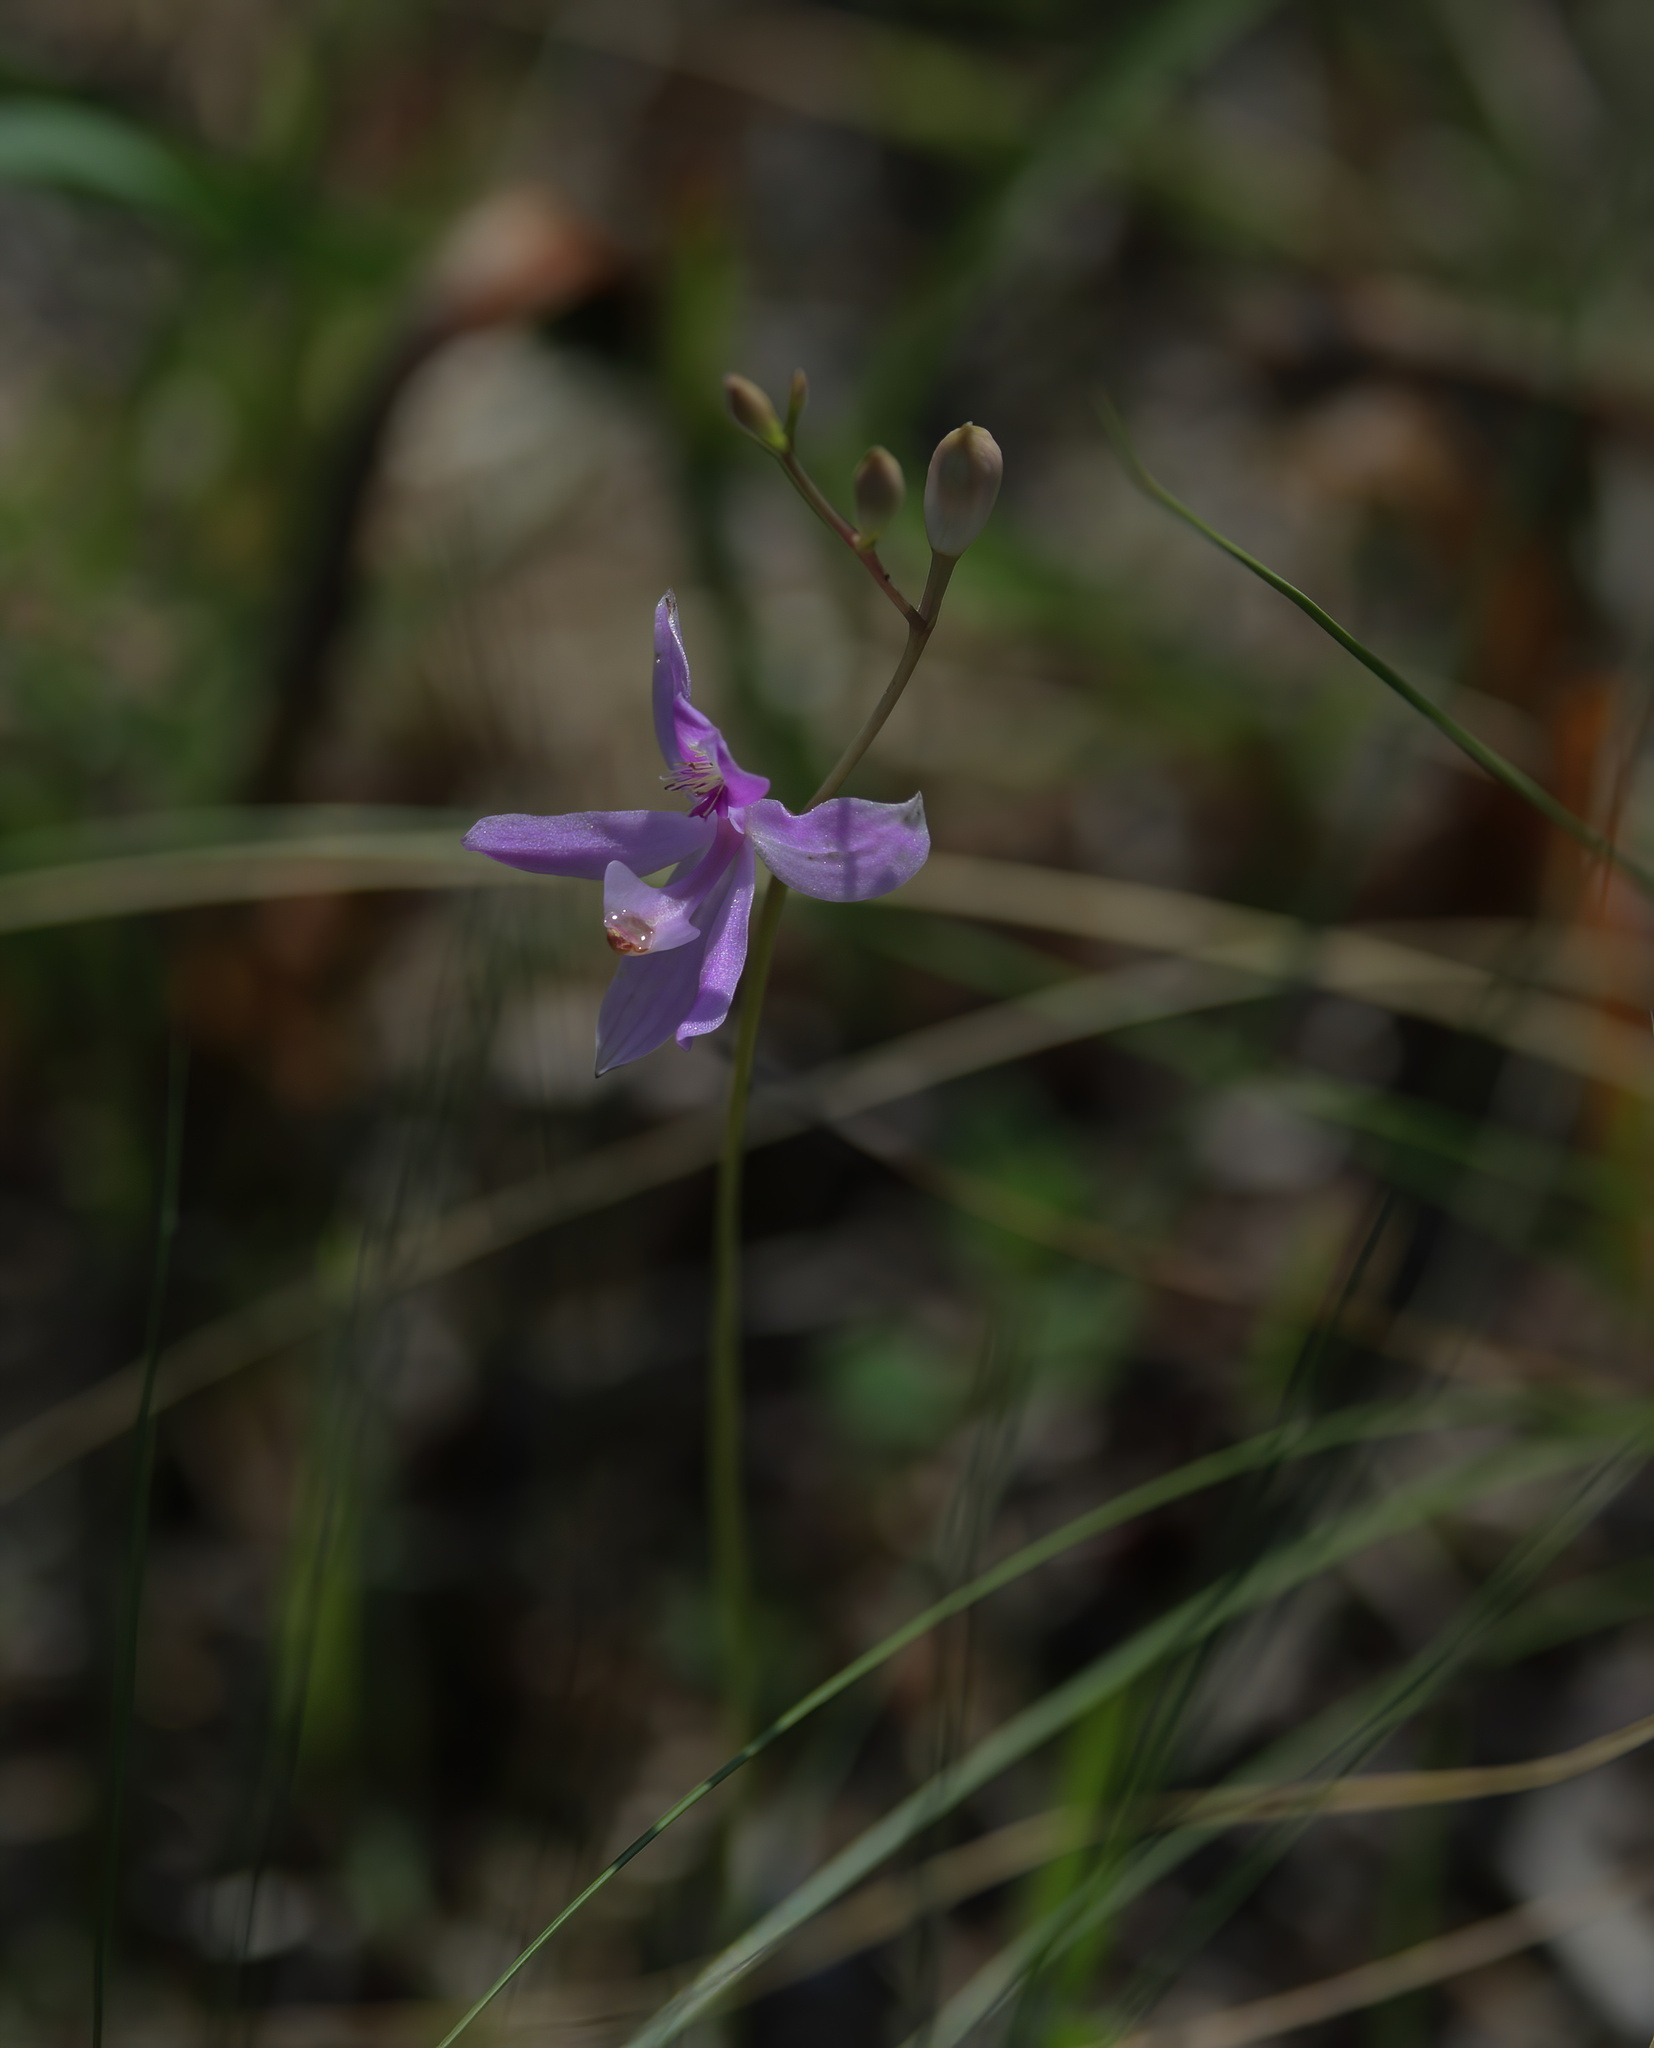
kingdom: Plantae
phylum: Tracheophyta
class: Liliopsida
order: Asparagales
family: Orchidaceae
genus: Calopogon
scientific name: Calopogon pallidus
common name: Pale grasspink
